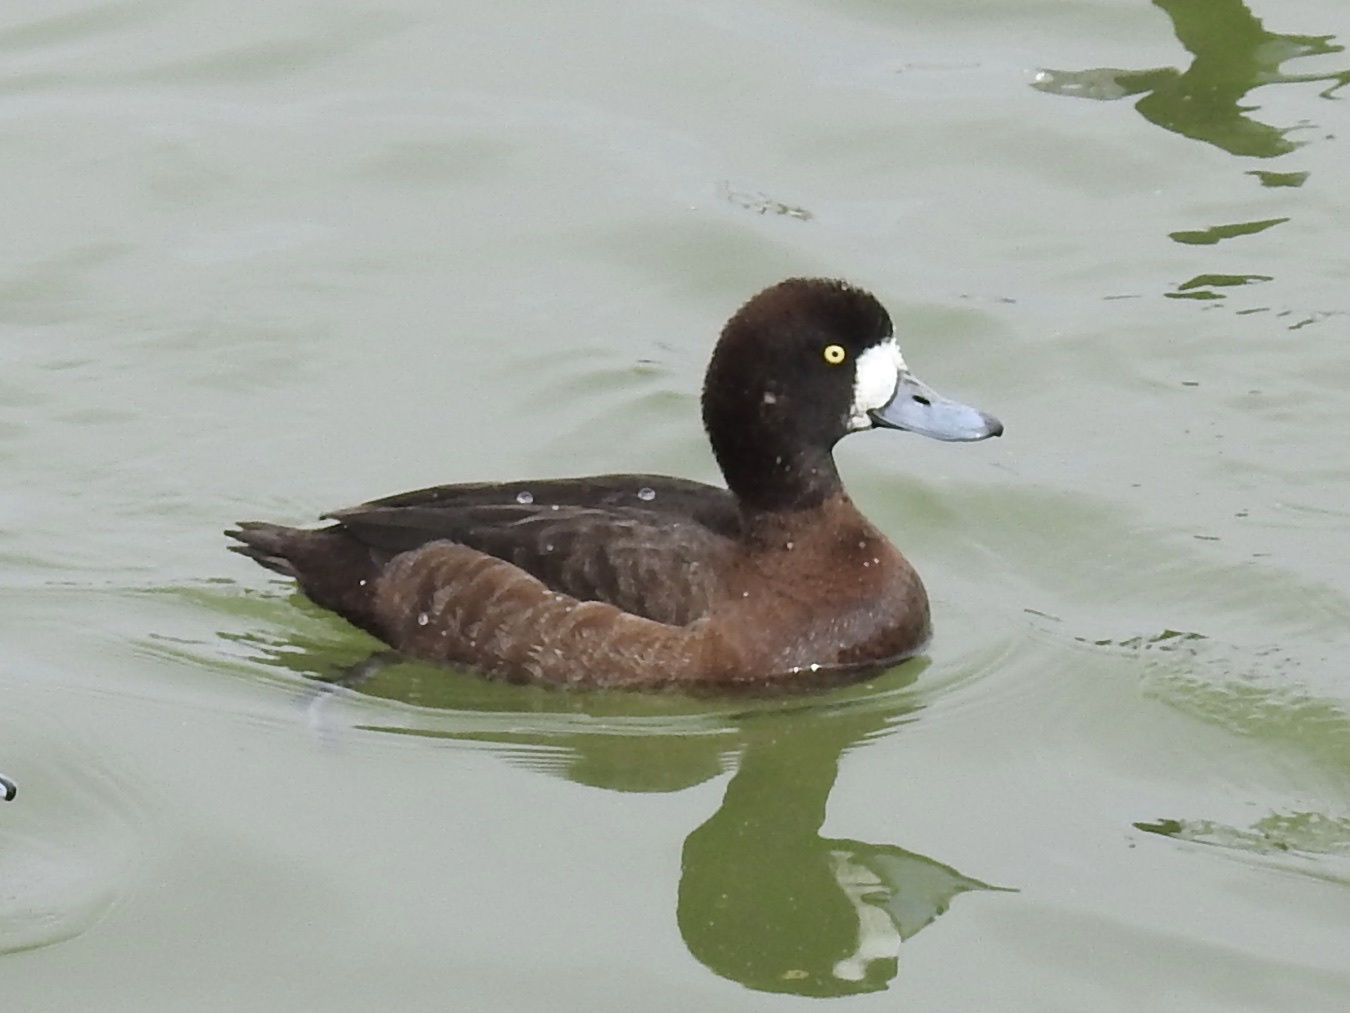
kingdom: Animalia
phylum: Chordata
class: Aves
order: Anseriformes
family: Anatidae
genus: Aythya
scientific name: Aythya marila
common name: Greater scaup
